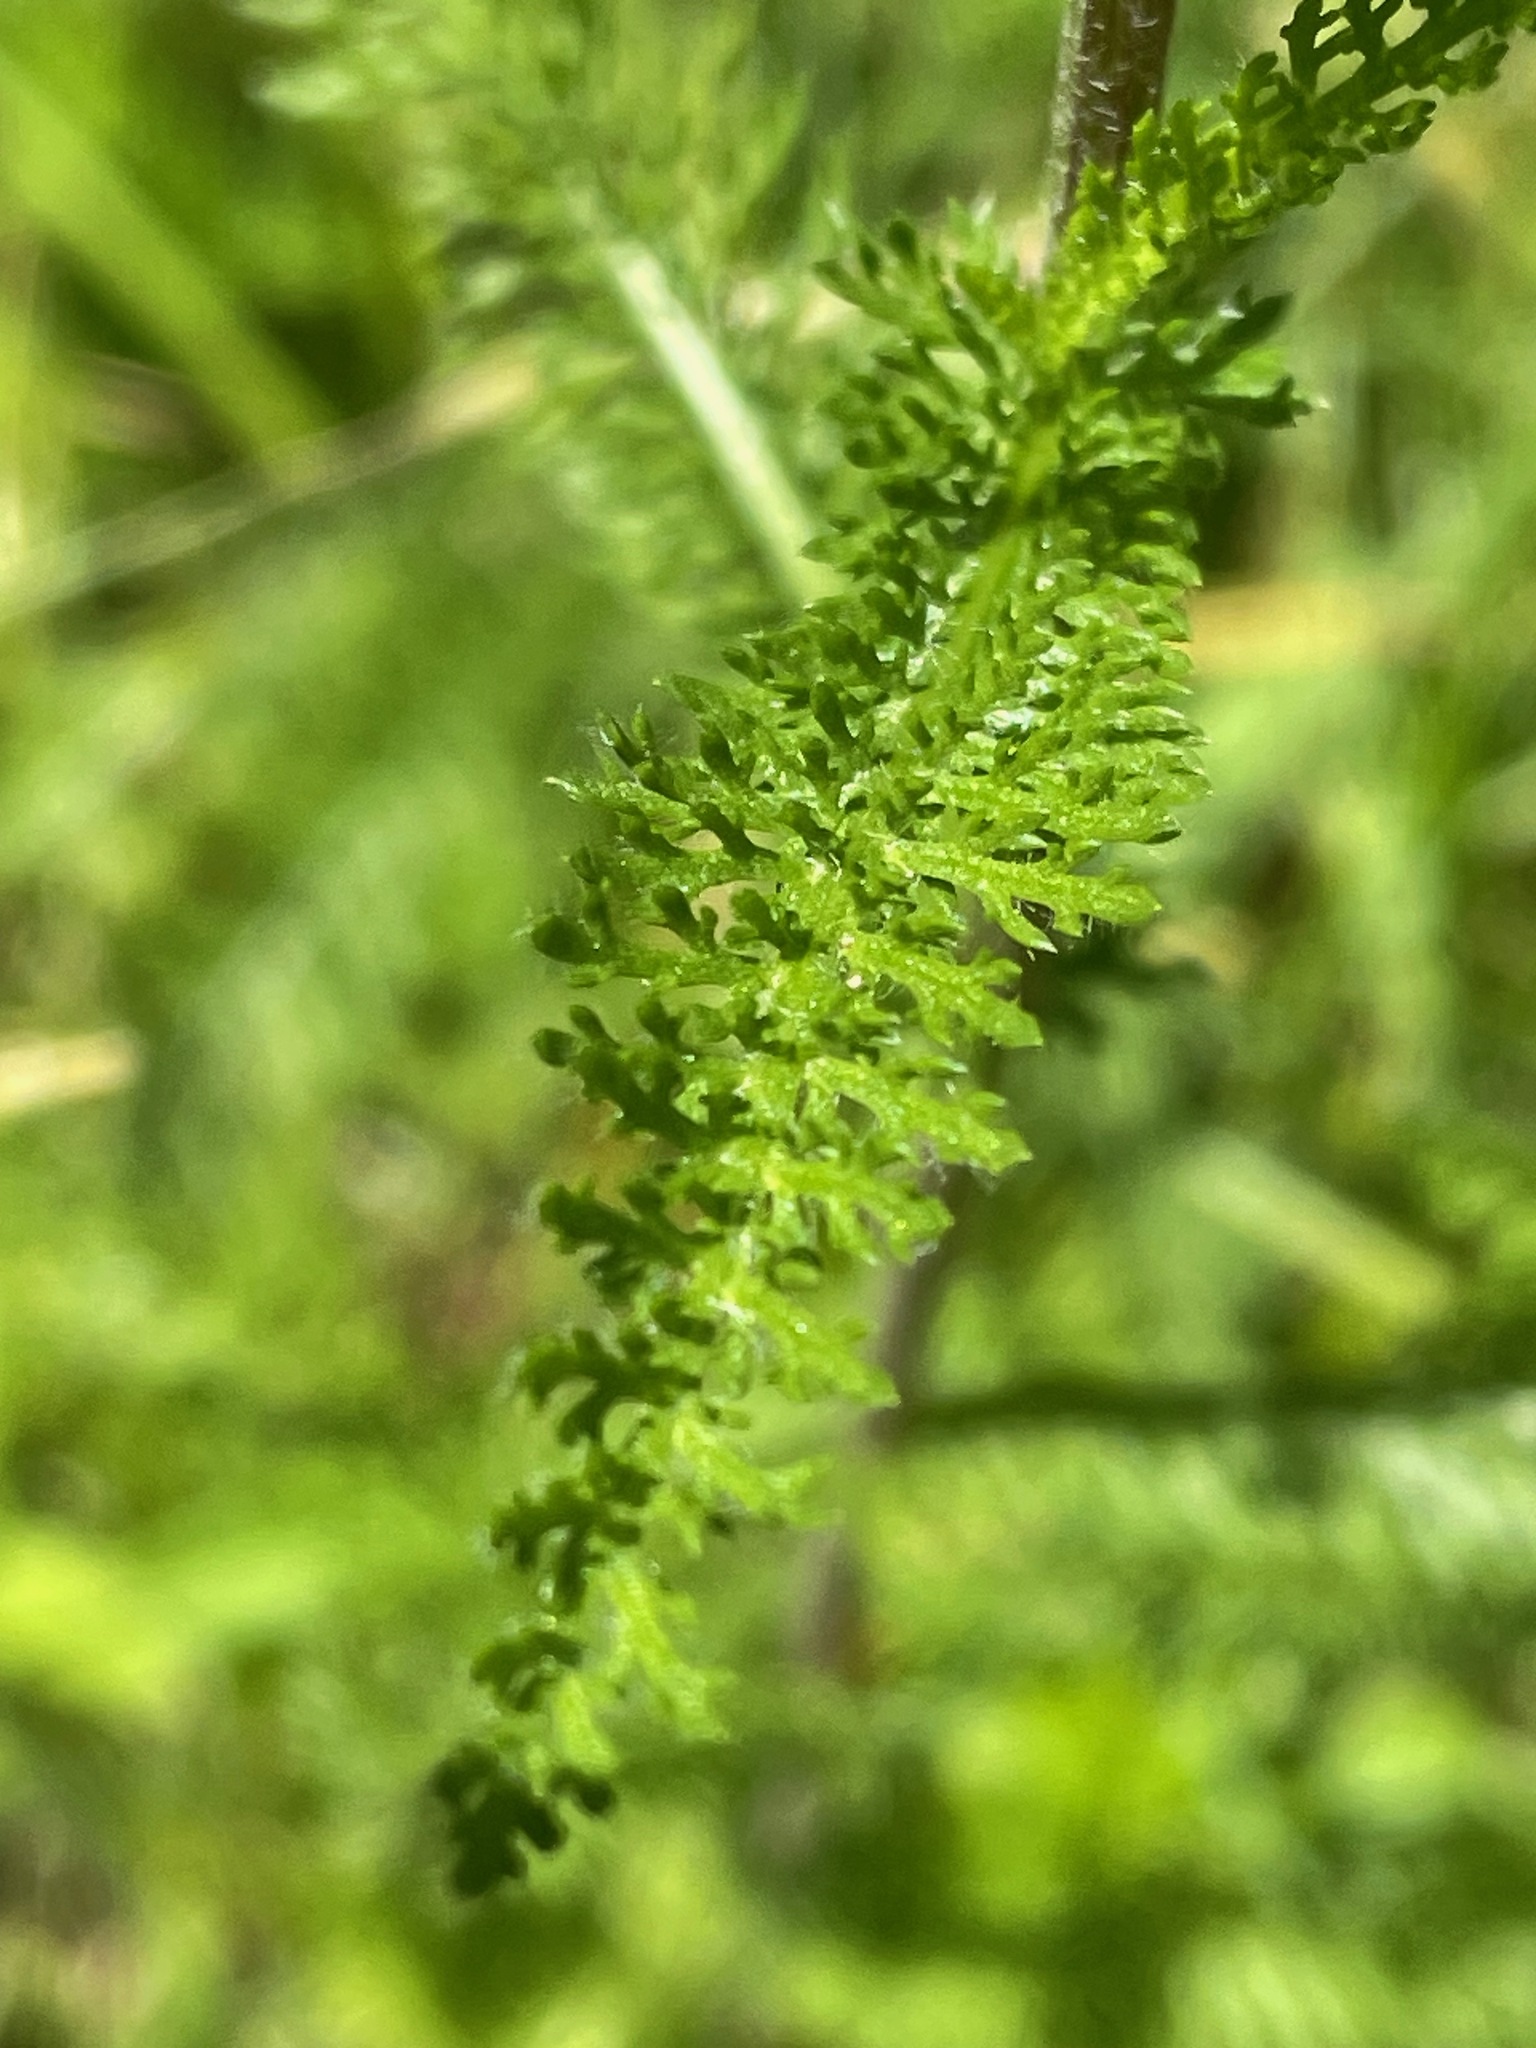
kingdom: Plantae
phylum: Tracheophyta
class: Magnoliopsida
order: Asterales
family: Asteraceae
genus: Achillea
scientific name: Achillea millefolium
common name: Yarrow
